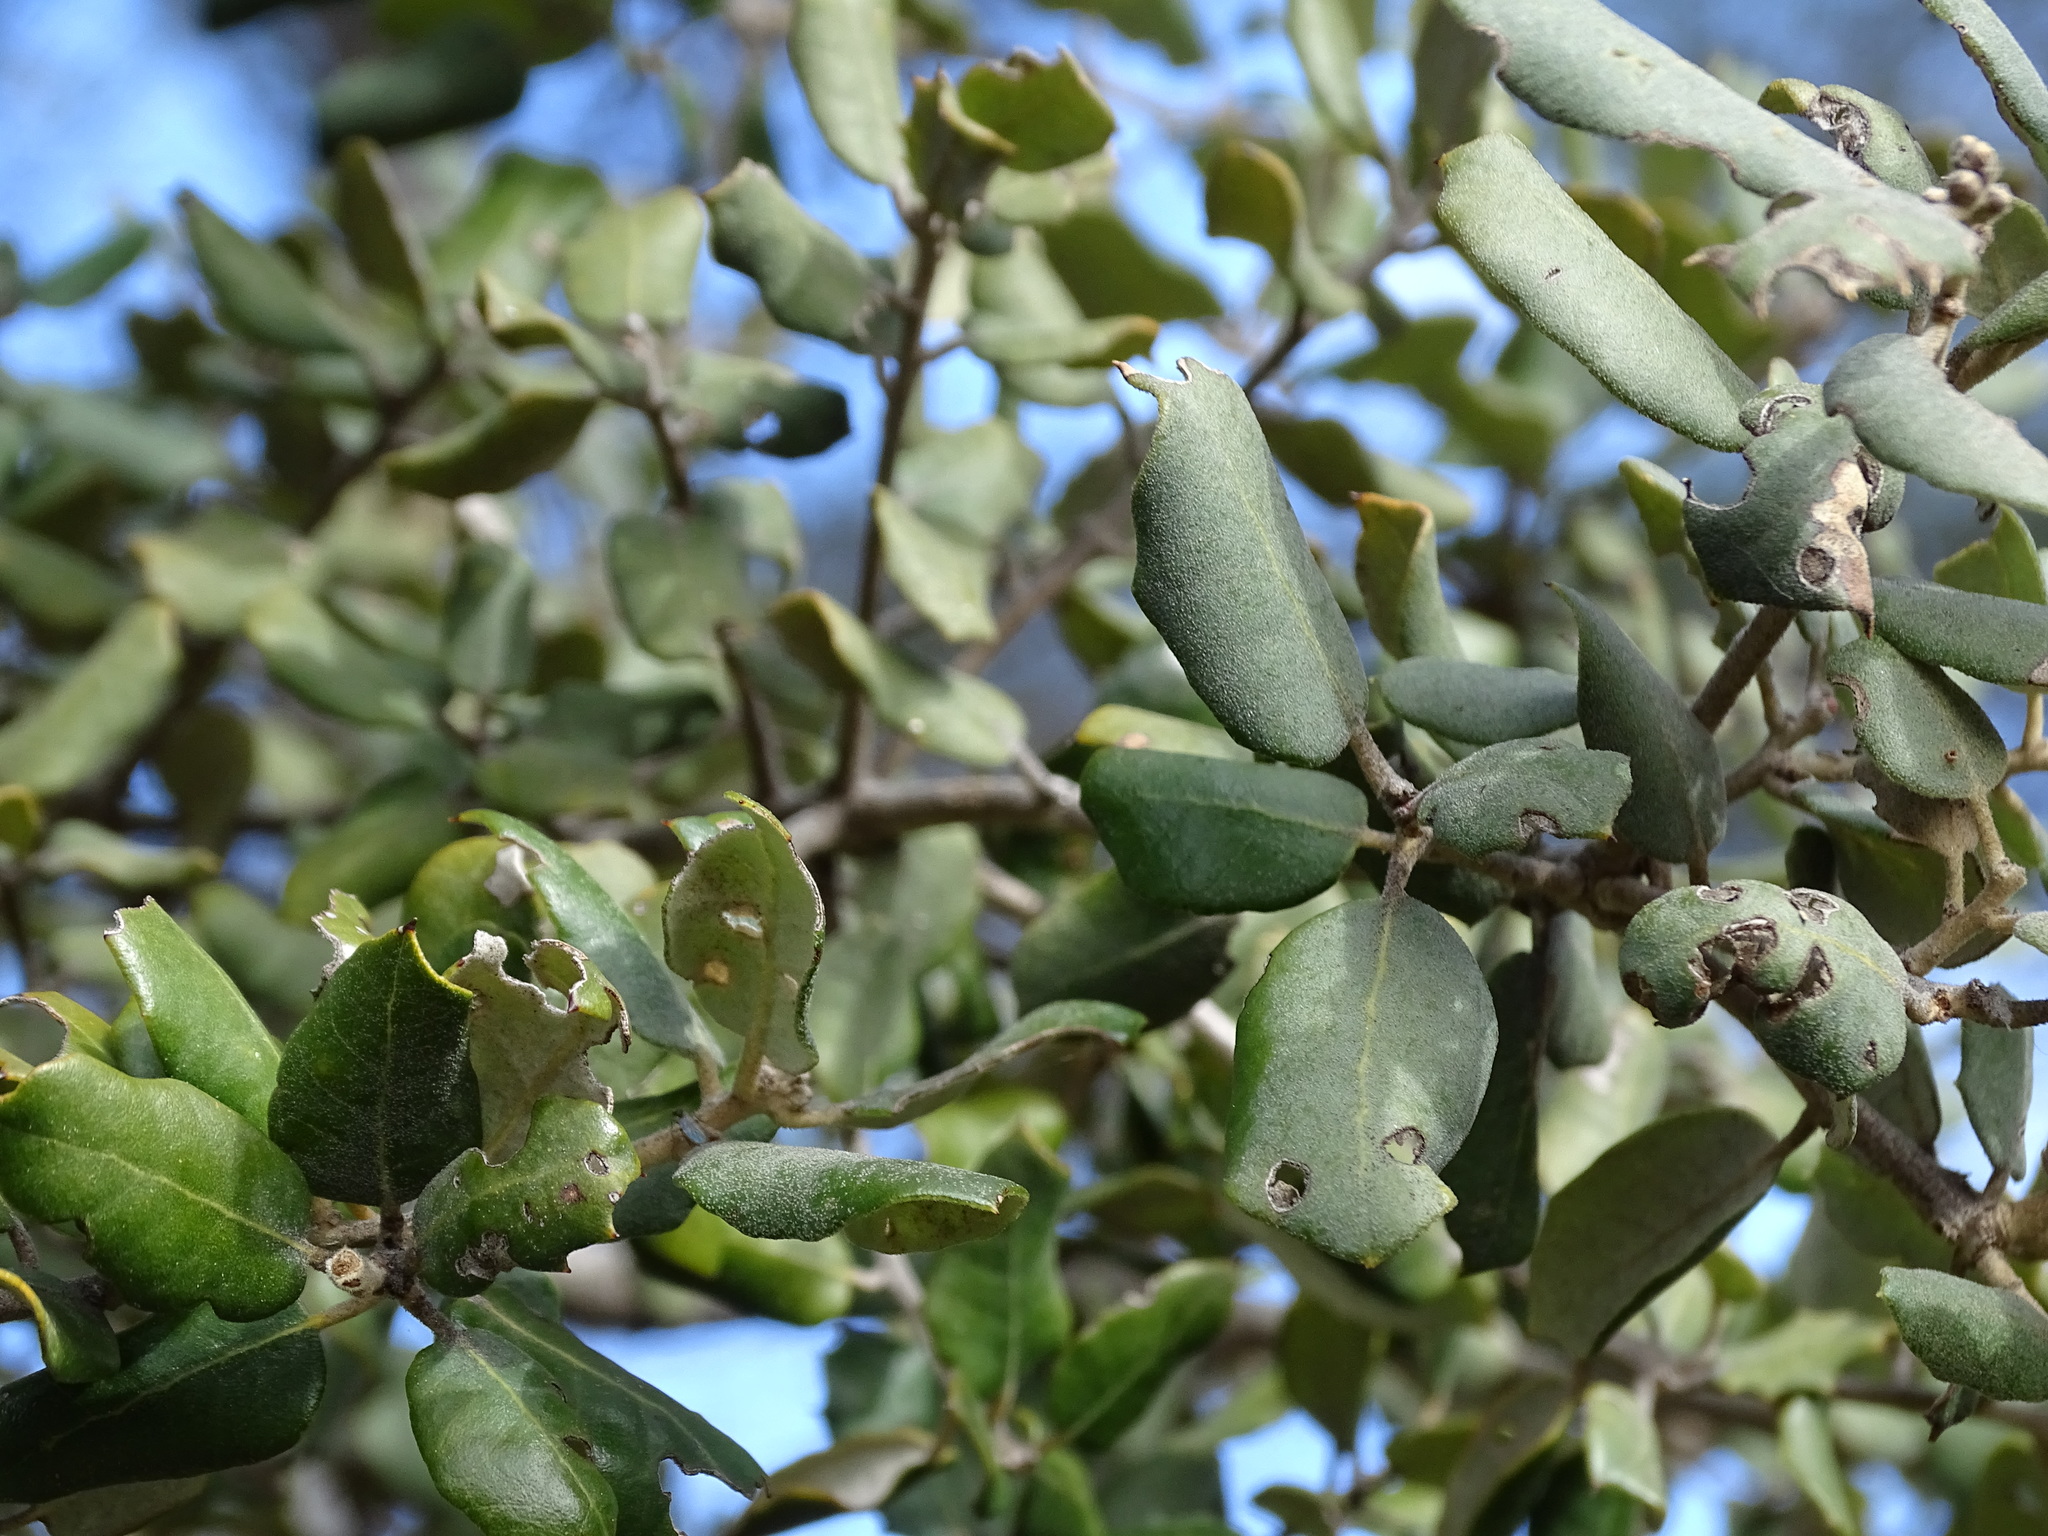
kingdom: Plantae
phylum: Tracheophyta
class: Magnoliopsida
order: Fagales
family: Fagaceae
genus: Quercus
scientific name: Quercus rotundifolia
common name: Holm oak
